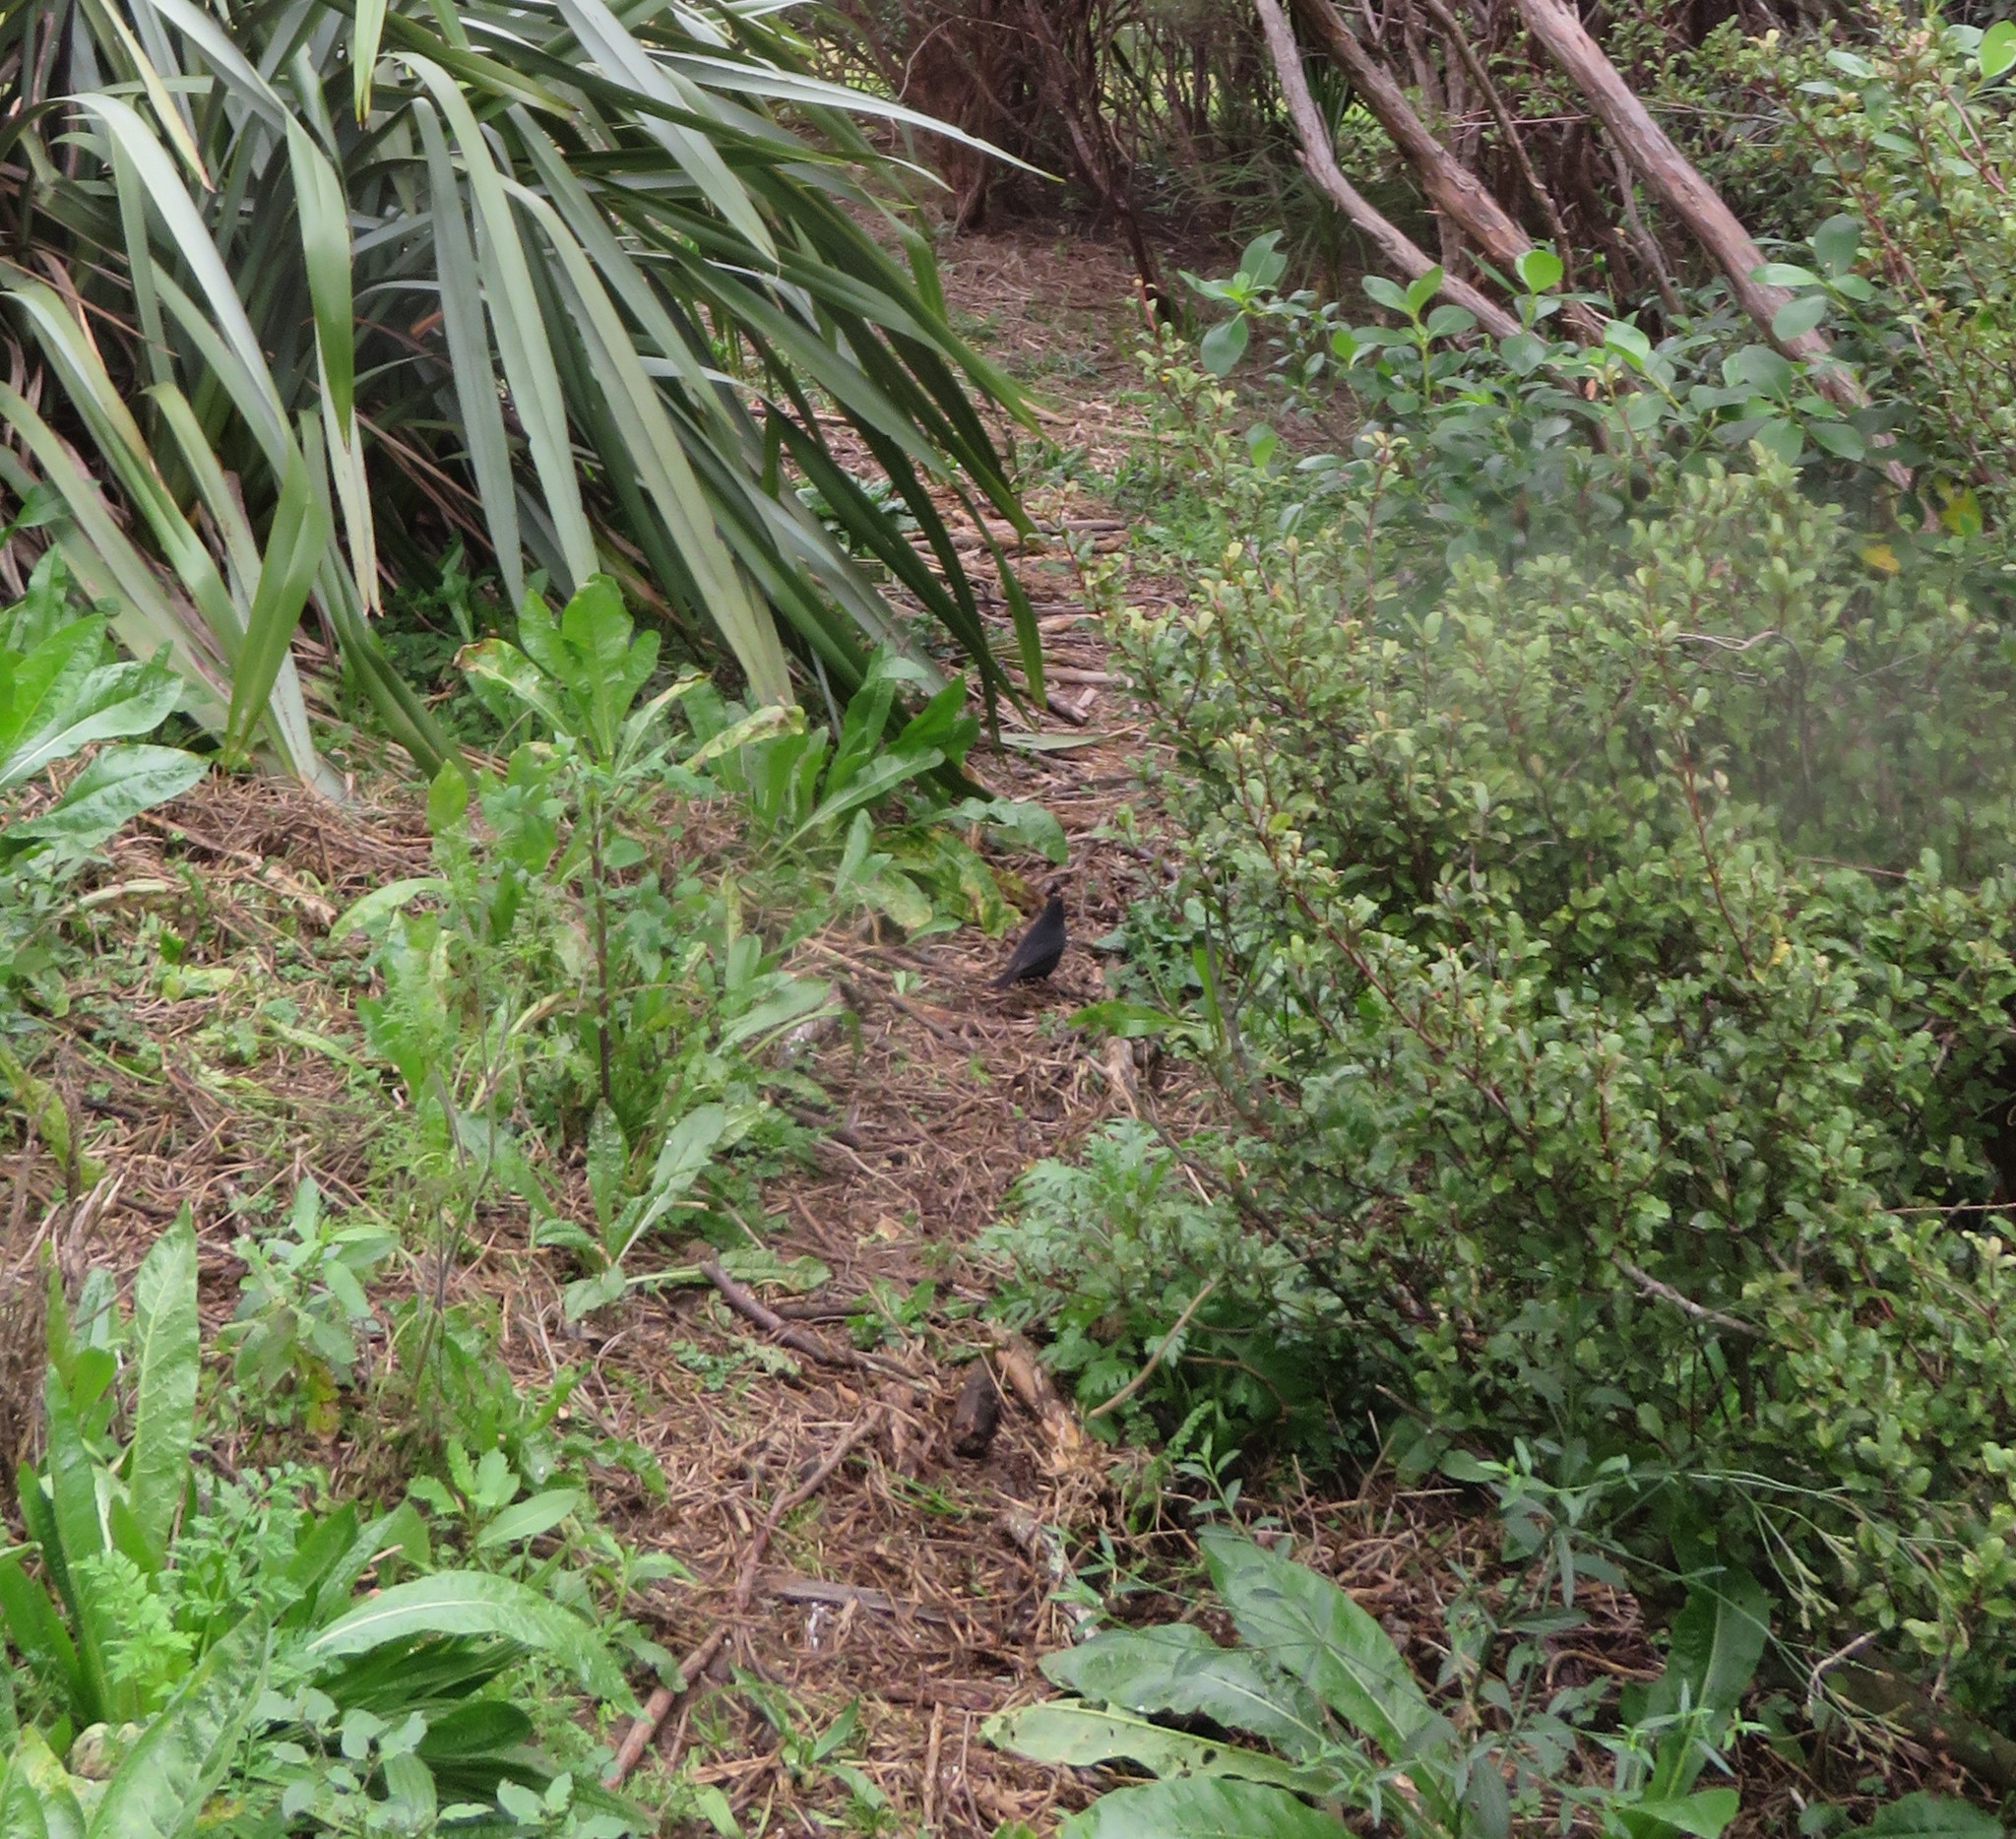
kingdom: Animalia
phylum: Chordata
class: Aves
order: Passeriformes
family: Turdidae
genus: Turdus
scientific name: Turdus merula
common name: Common blackbird
